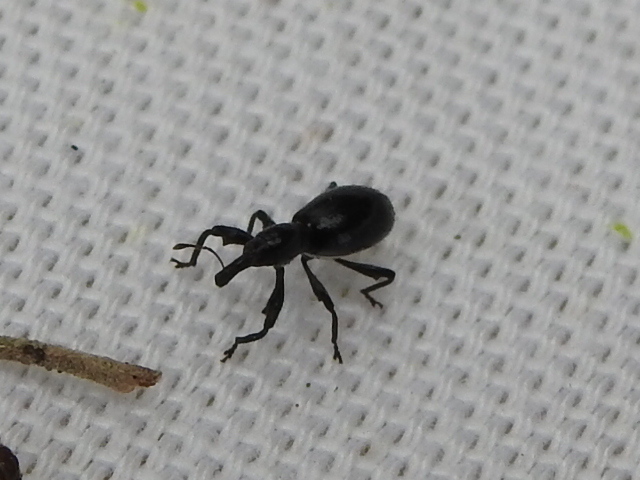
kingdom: Animalia
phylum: Arthropoda
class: Insecta
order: Coleoptera
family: Curculionidae
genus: Myrmex
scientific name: Myrmex myrmex
